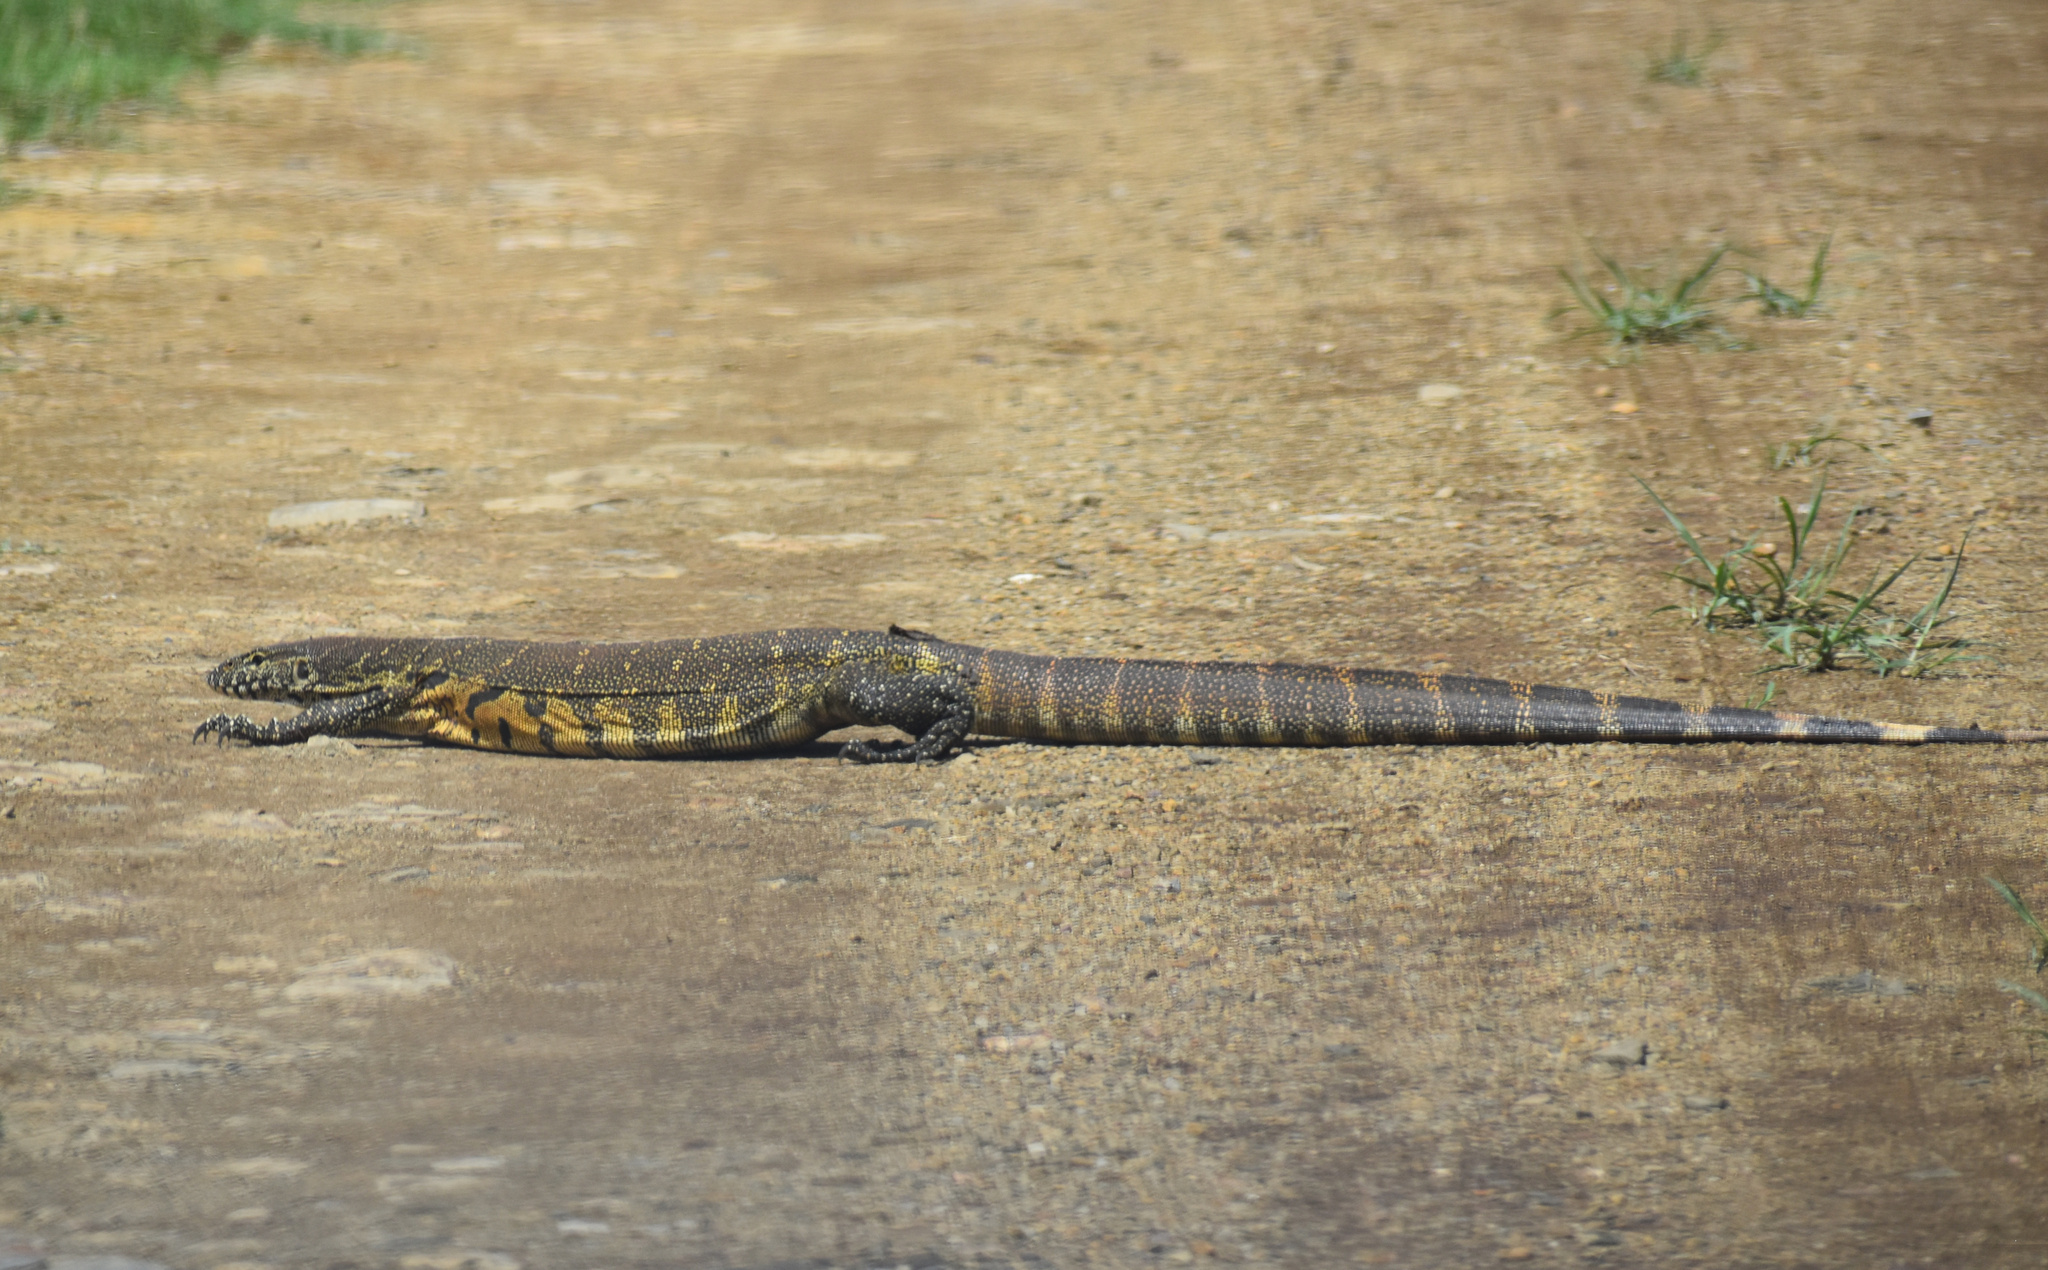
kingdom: Animalia
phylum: Chordata
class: Squamata
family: Varanidae
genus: Varanus
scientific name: Varanus niloticus
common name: Nile monitor
